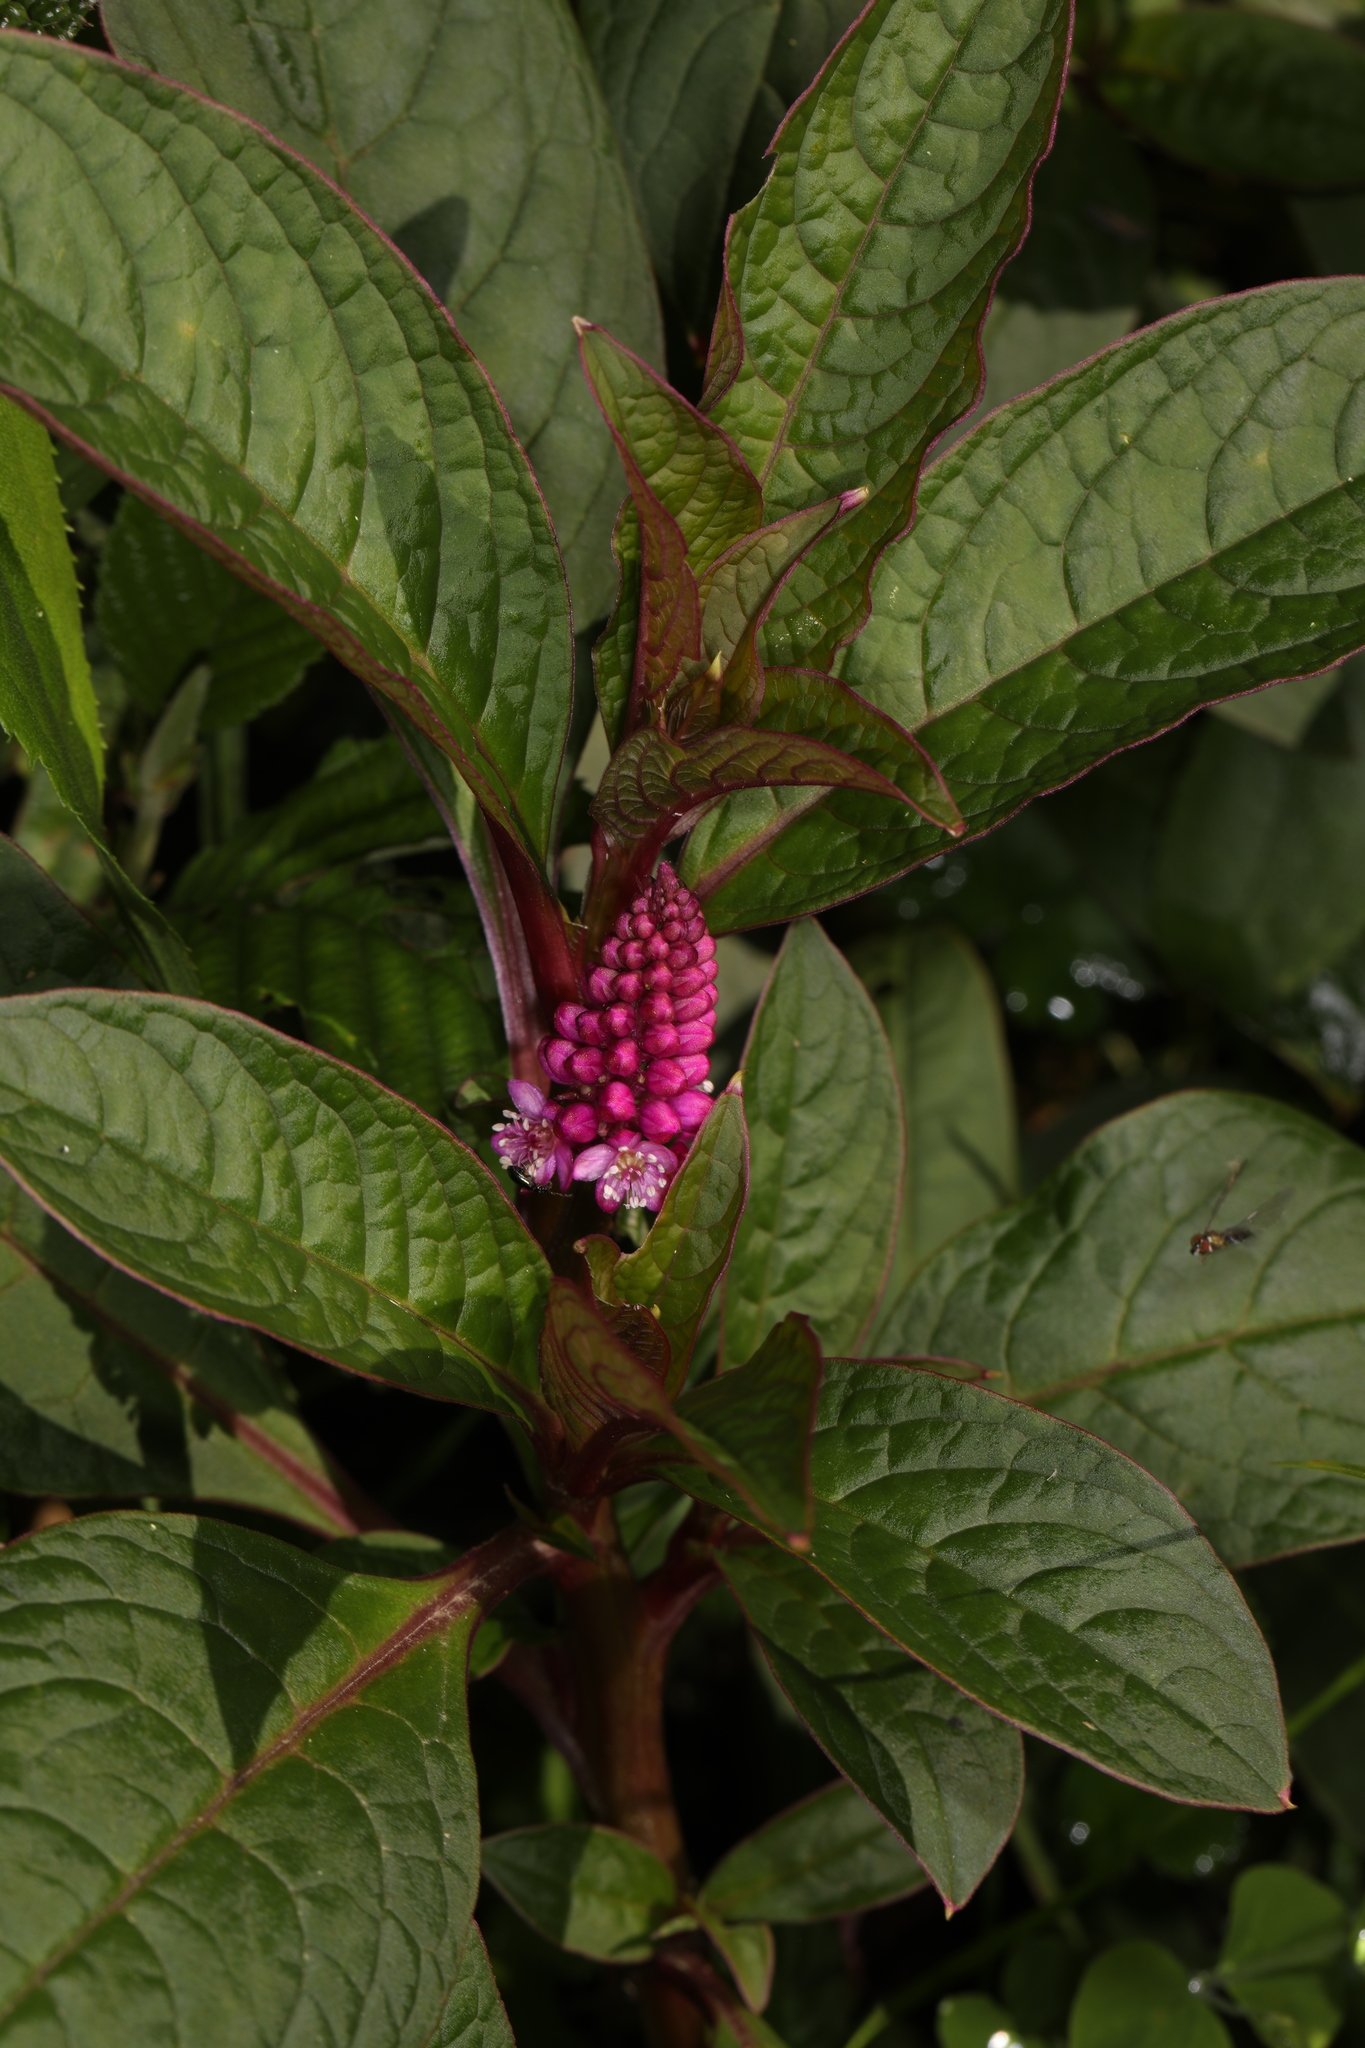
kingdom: Plantae
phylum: Tracheophyta
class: Magnoliopsida
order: Caryophyllales
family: Phytolaccaceae
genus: Phytolacca
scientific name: Phytolacca bogotensis
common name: Southern pokeweed
